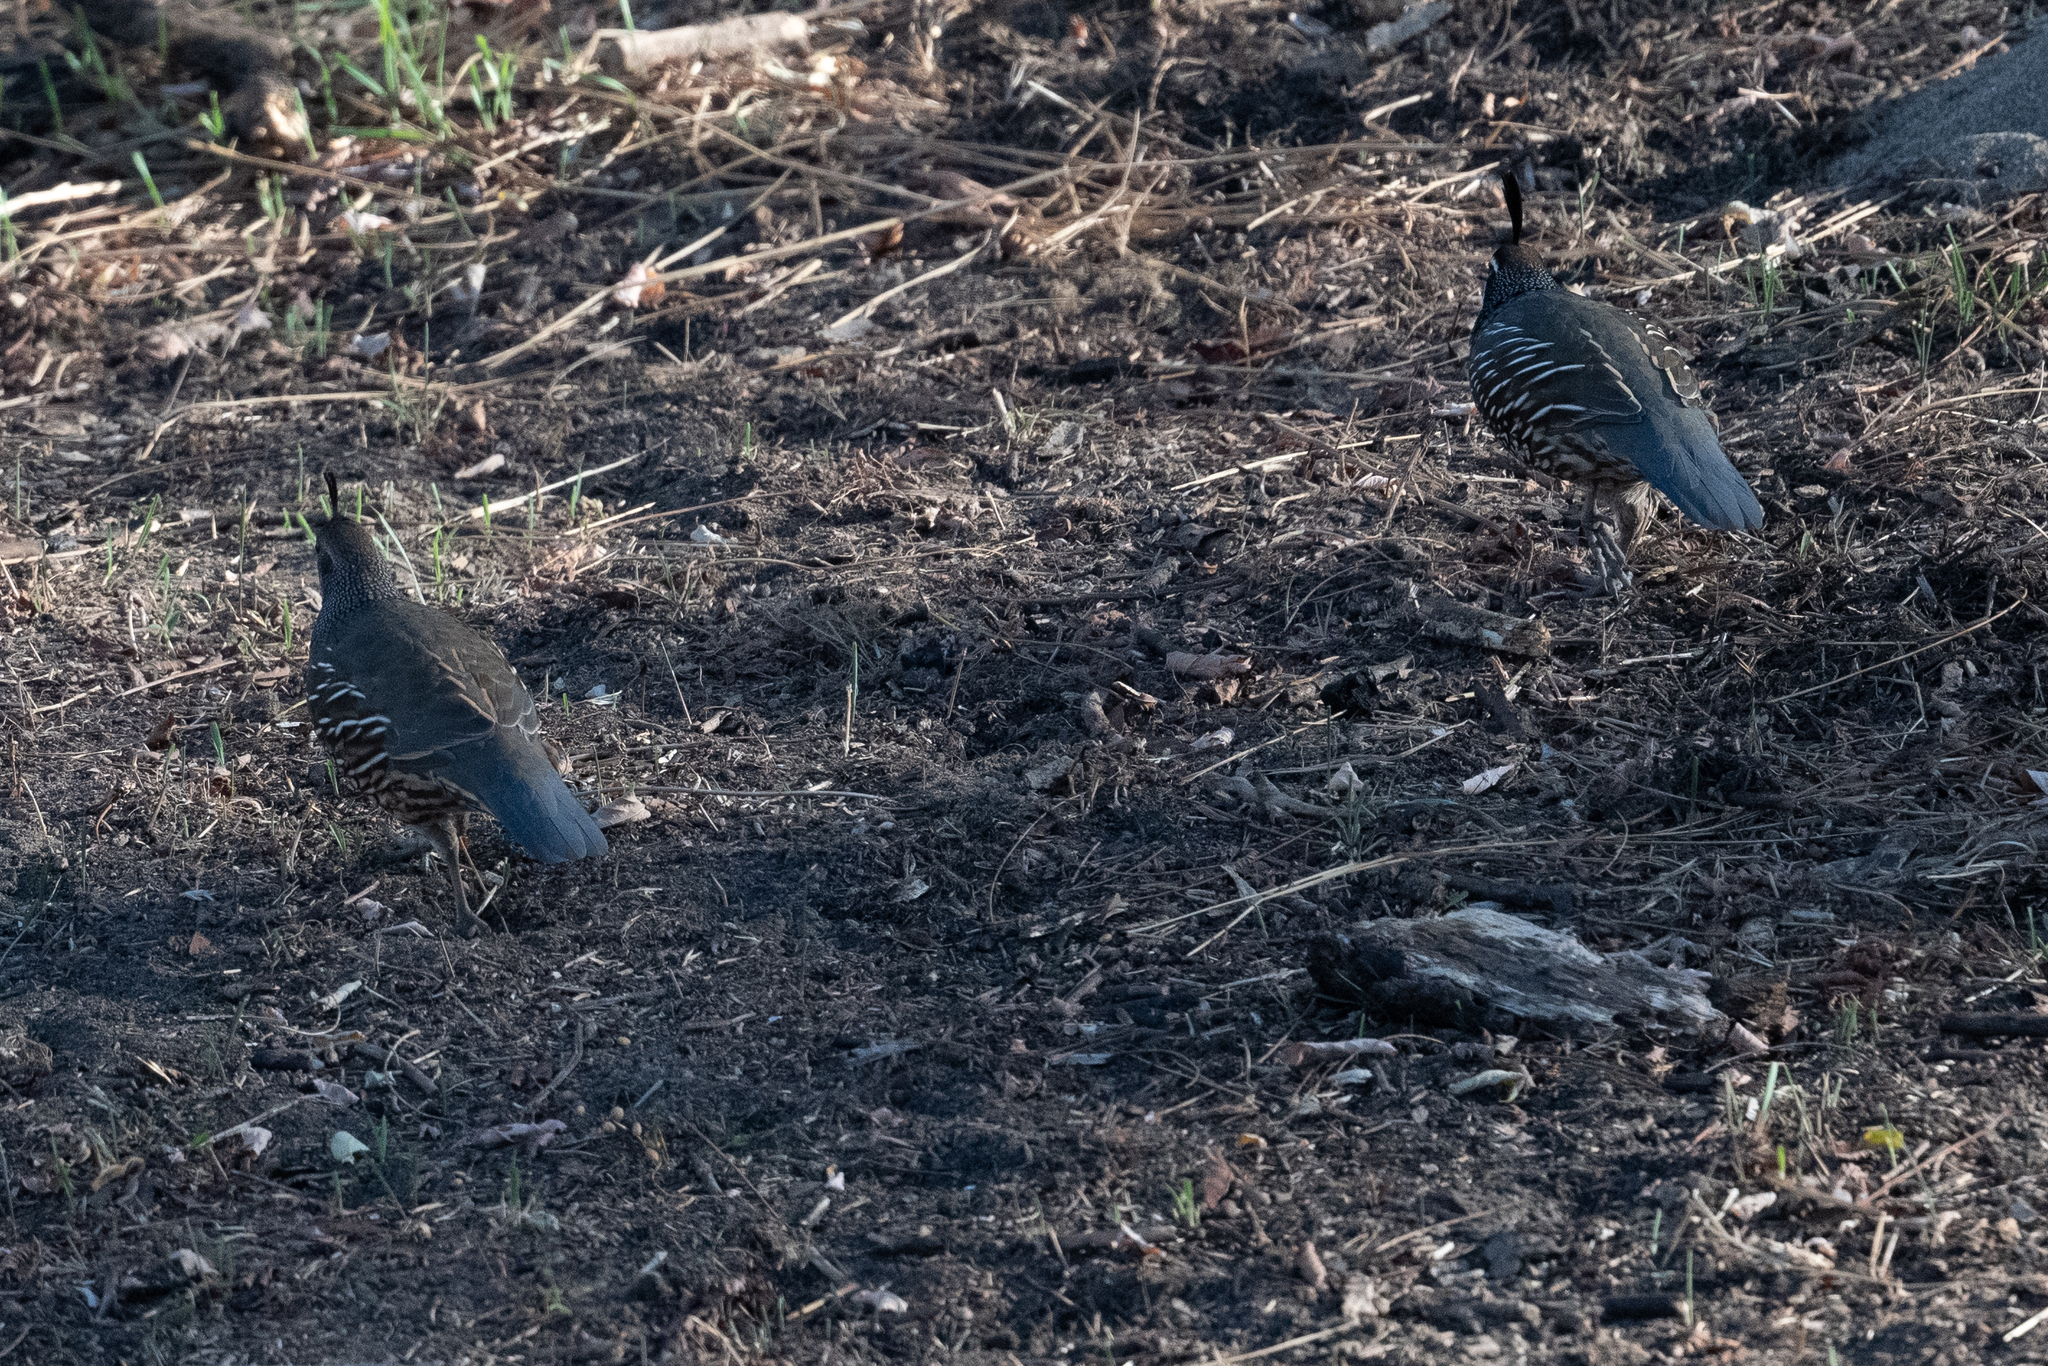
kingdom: Animalia
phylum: Chordata
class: Aves
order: Galliformes
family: Odontophoridae
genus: Callipepla
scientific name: Callipepla californica
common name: California quail
